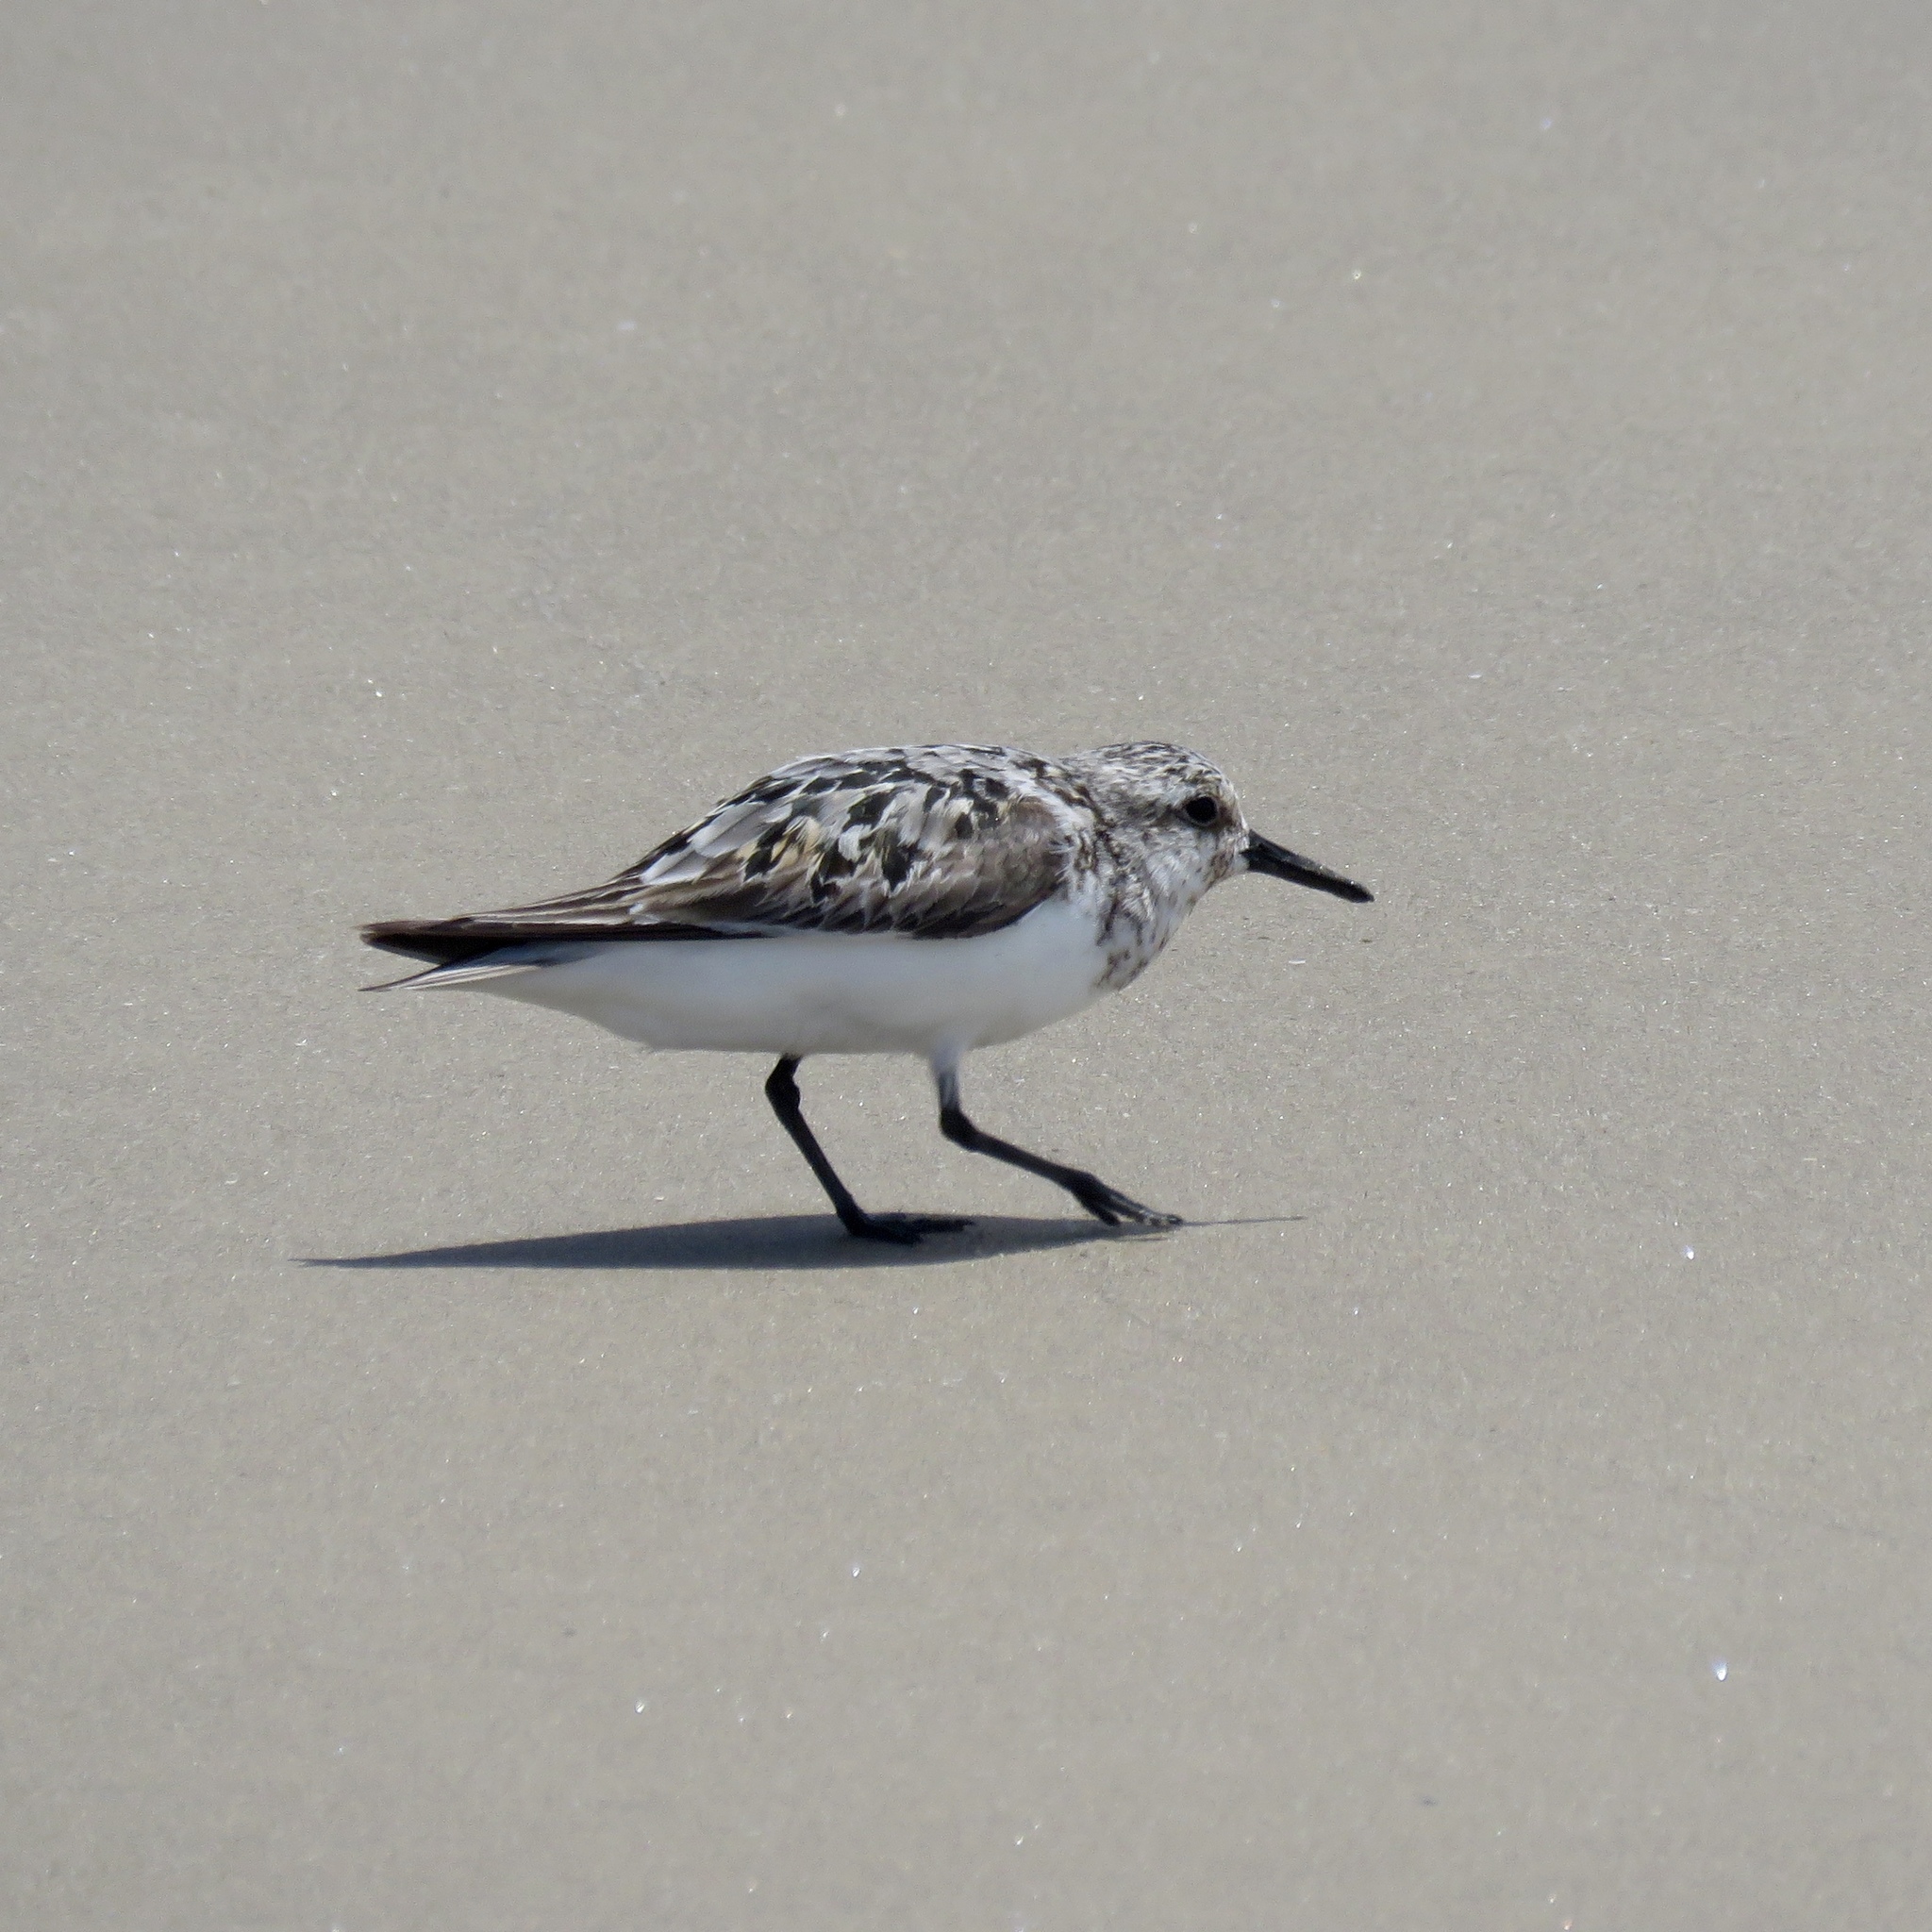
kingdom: Animalia
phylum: Chordata
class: Aves
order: Charadriiformes
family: Scolopacidae
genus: Calidris
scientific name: Calidris alba
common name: Sanderling
